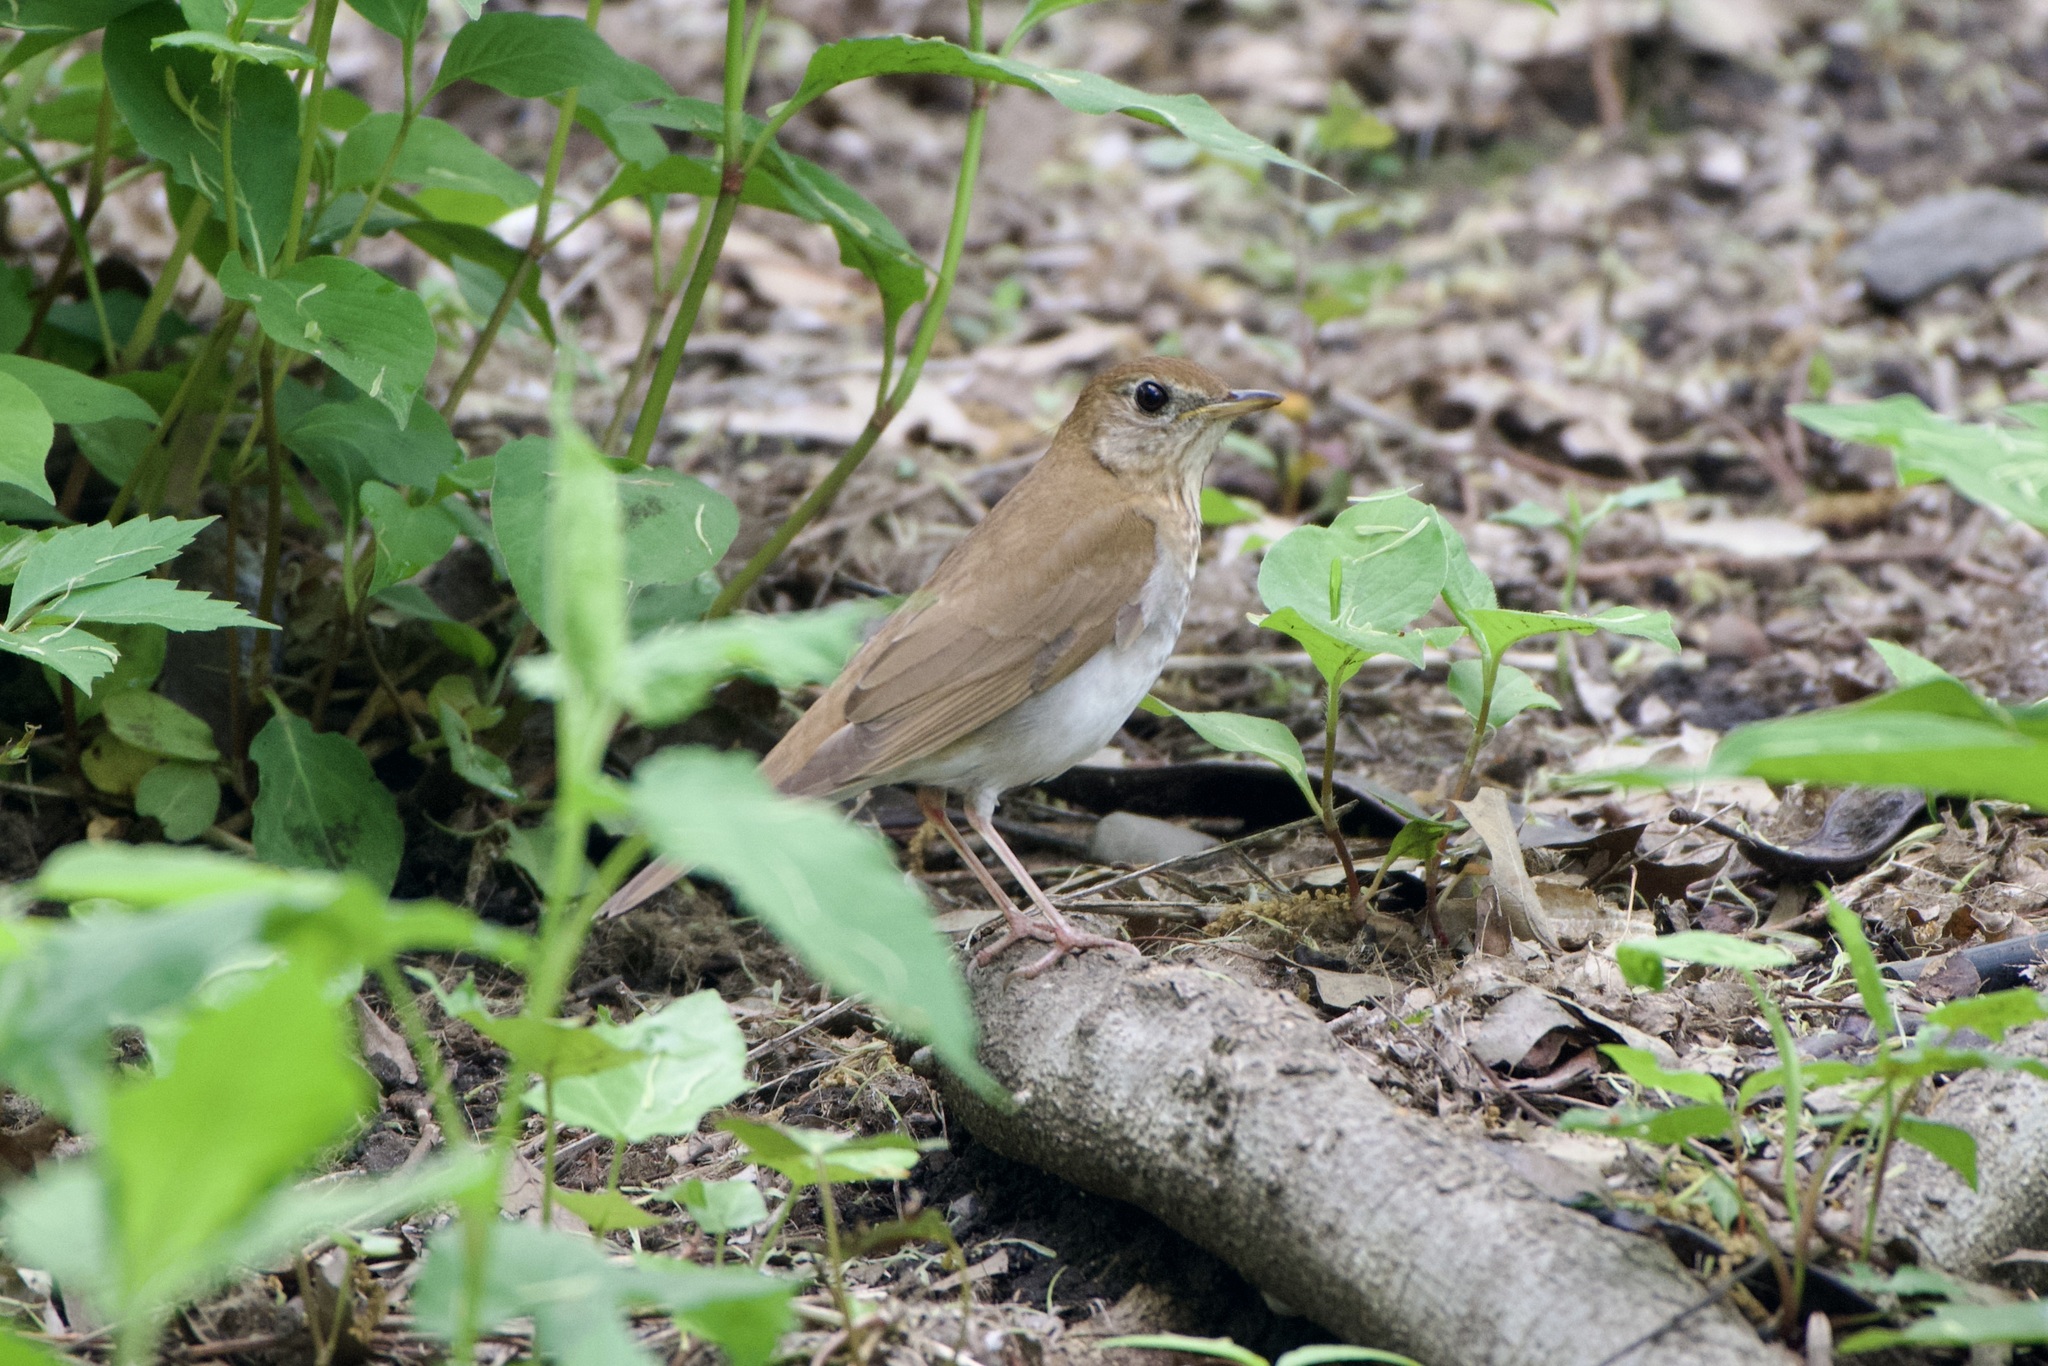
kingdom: Animalia
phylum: Chordata
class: Aves
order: Passeriformes
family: Turdidae
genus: Catharus
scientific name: Catharus fuscescens
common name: Veery
